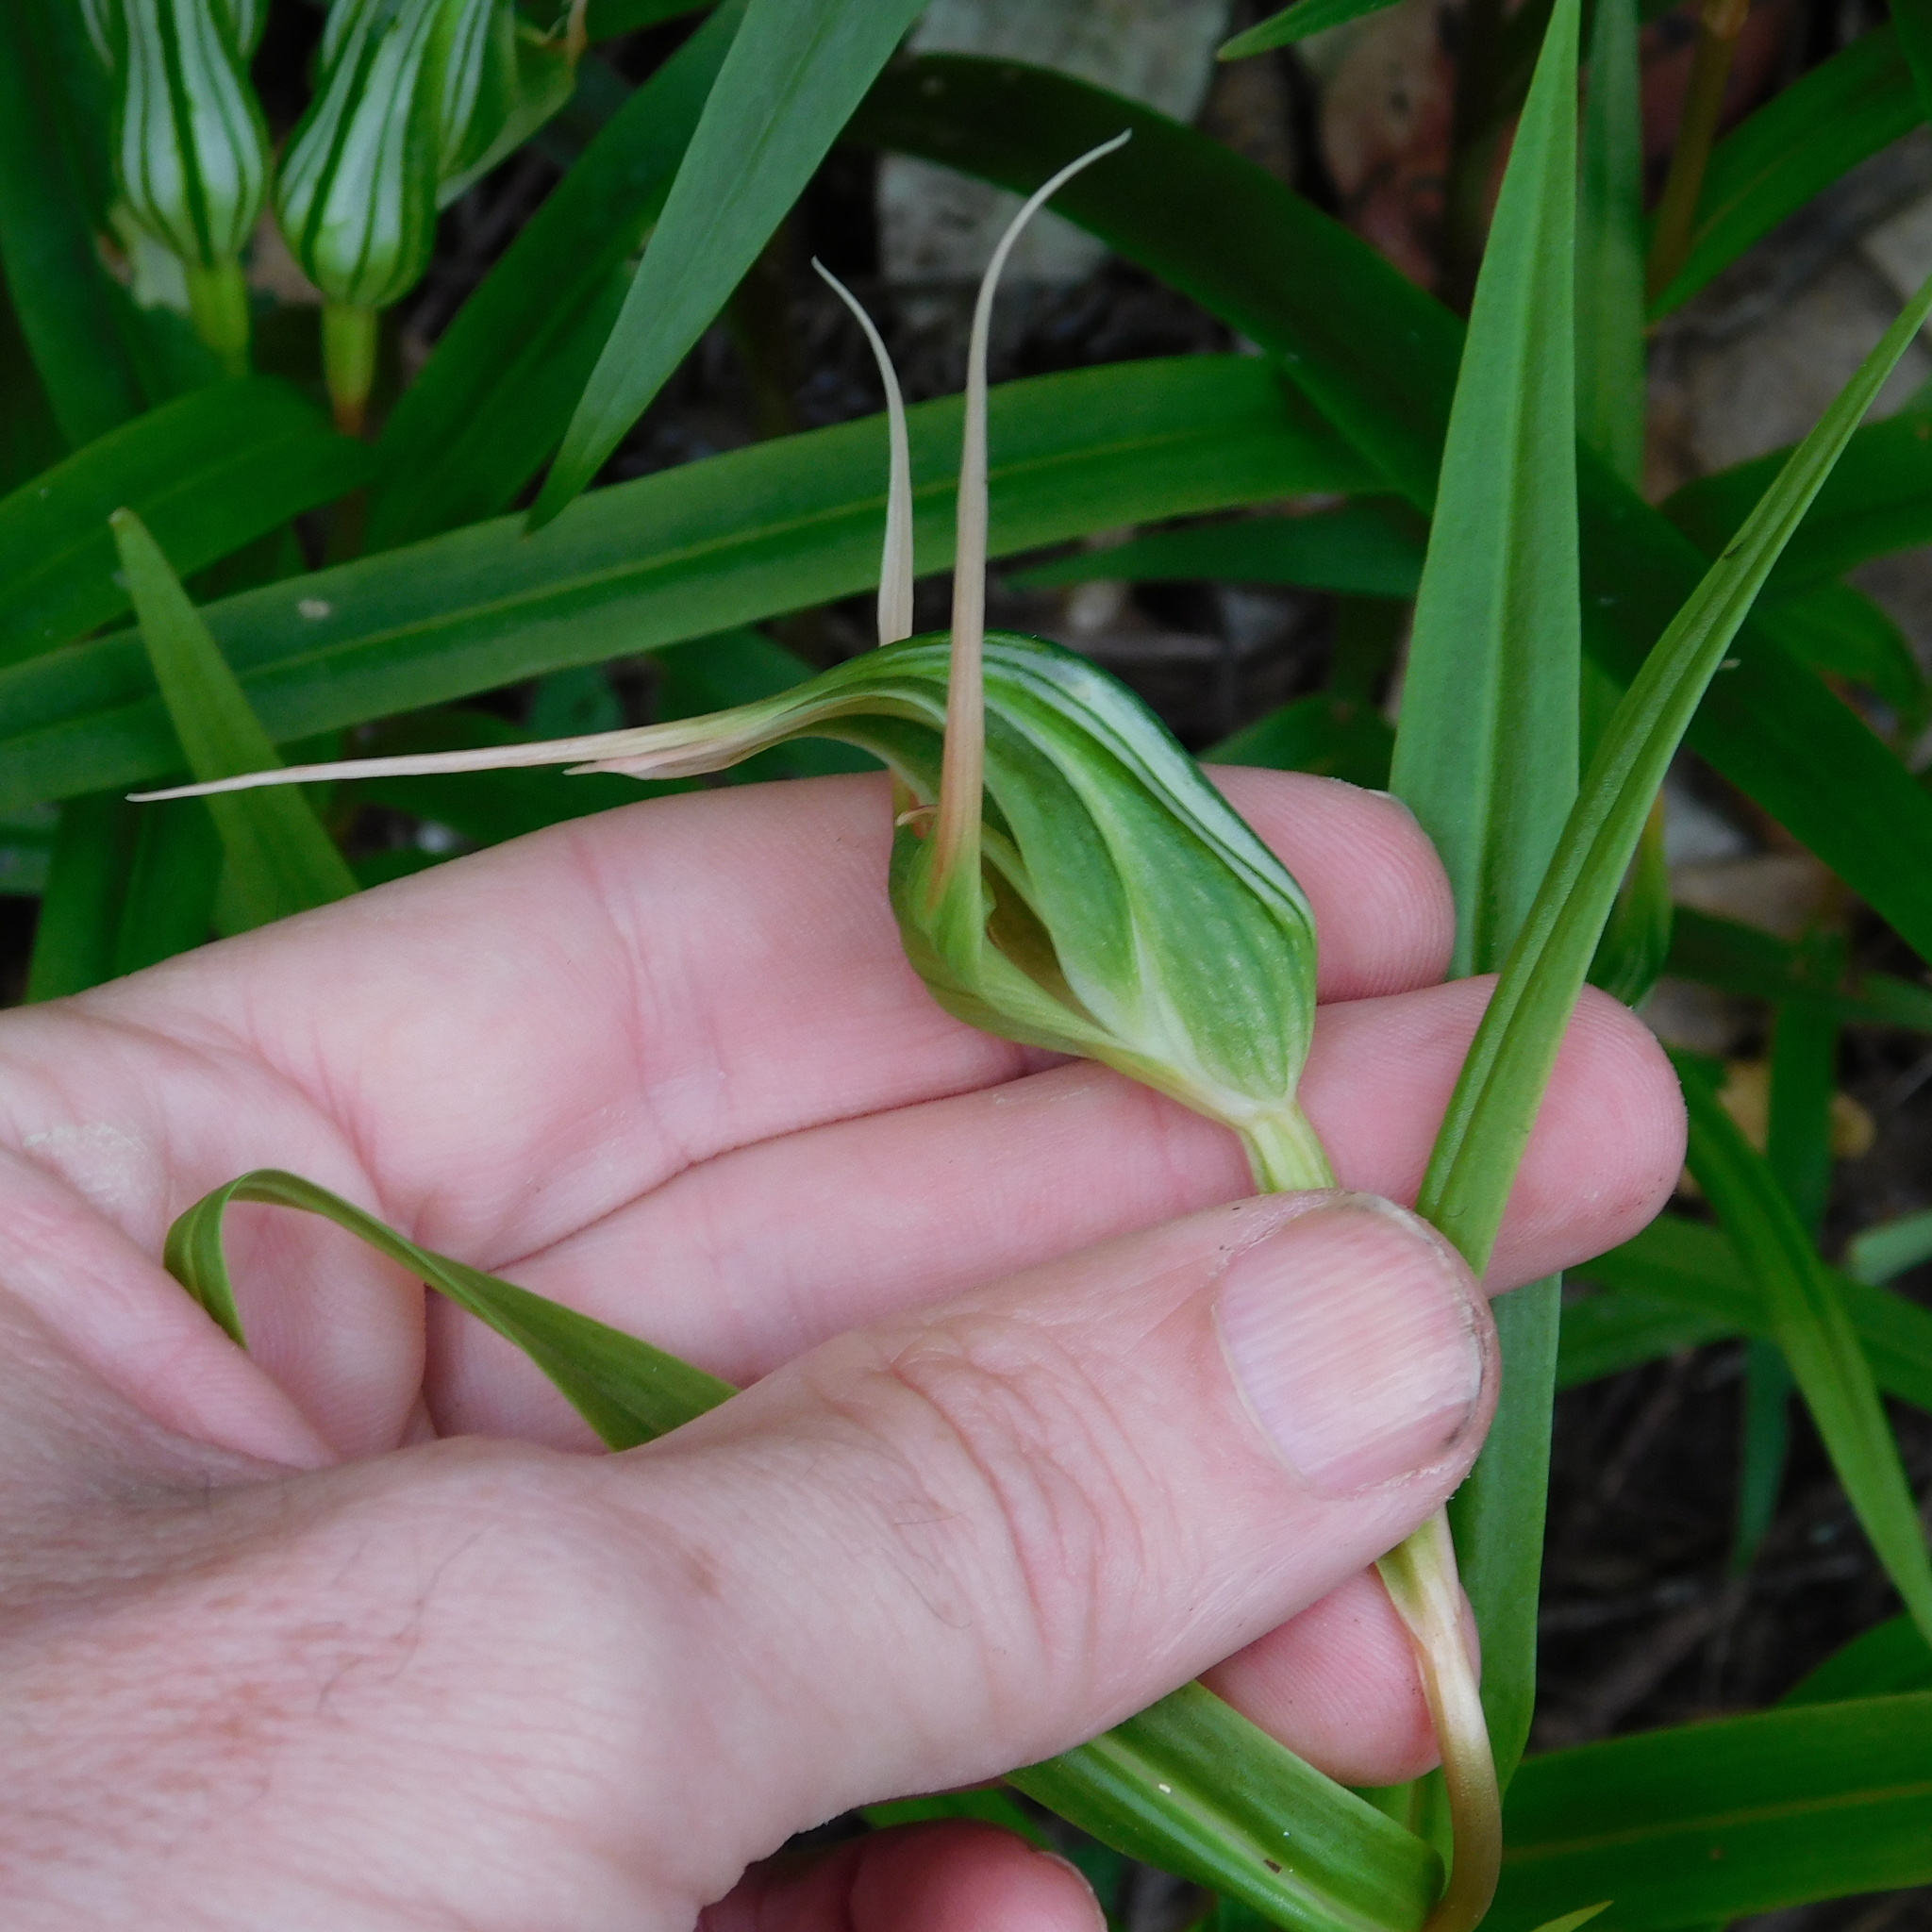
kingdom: Plantae
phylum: Tracheophyta
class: Liliopsida
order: Asparagales
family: Orchidaceae
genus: Pterostylis
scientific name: Pterostylis banksii
